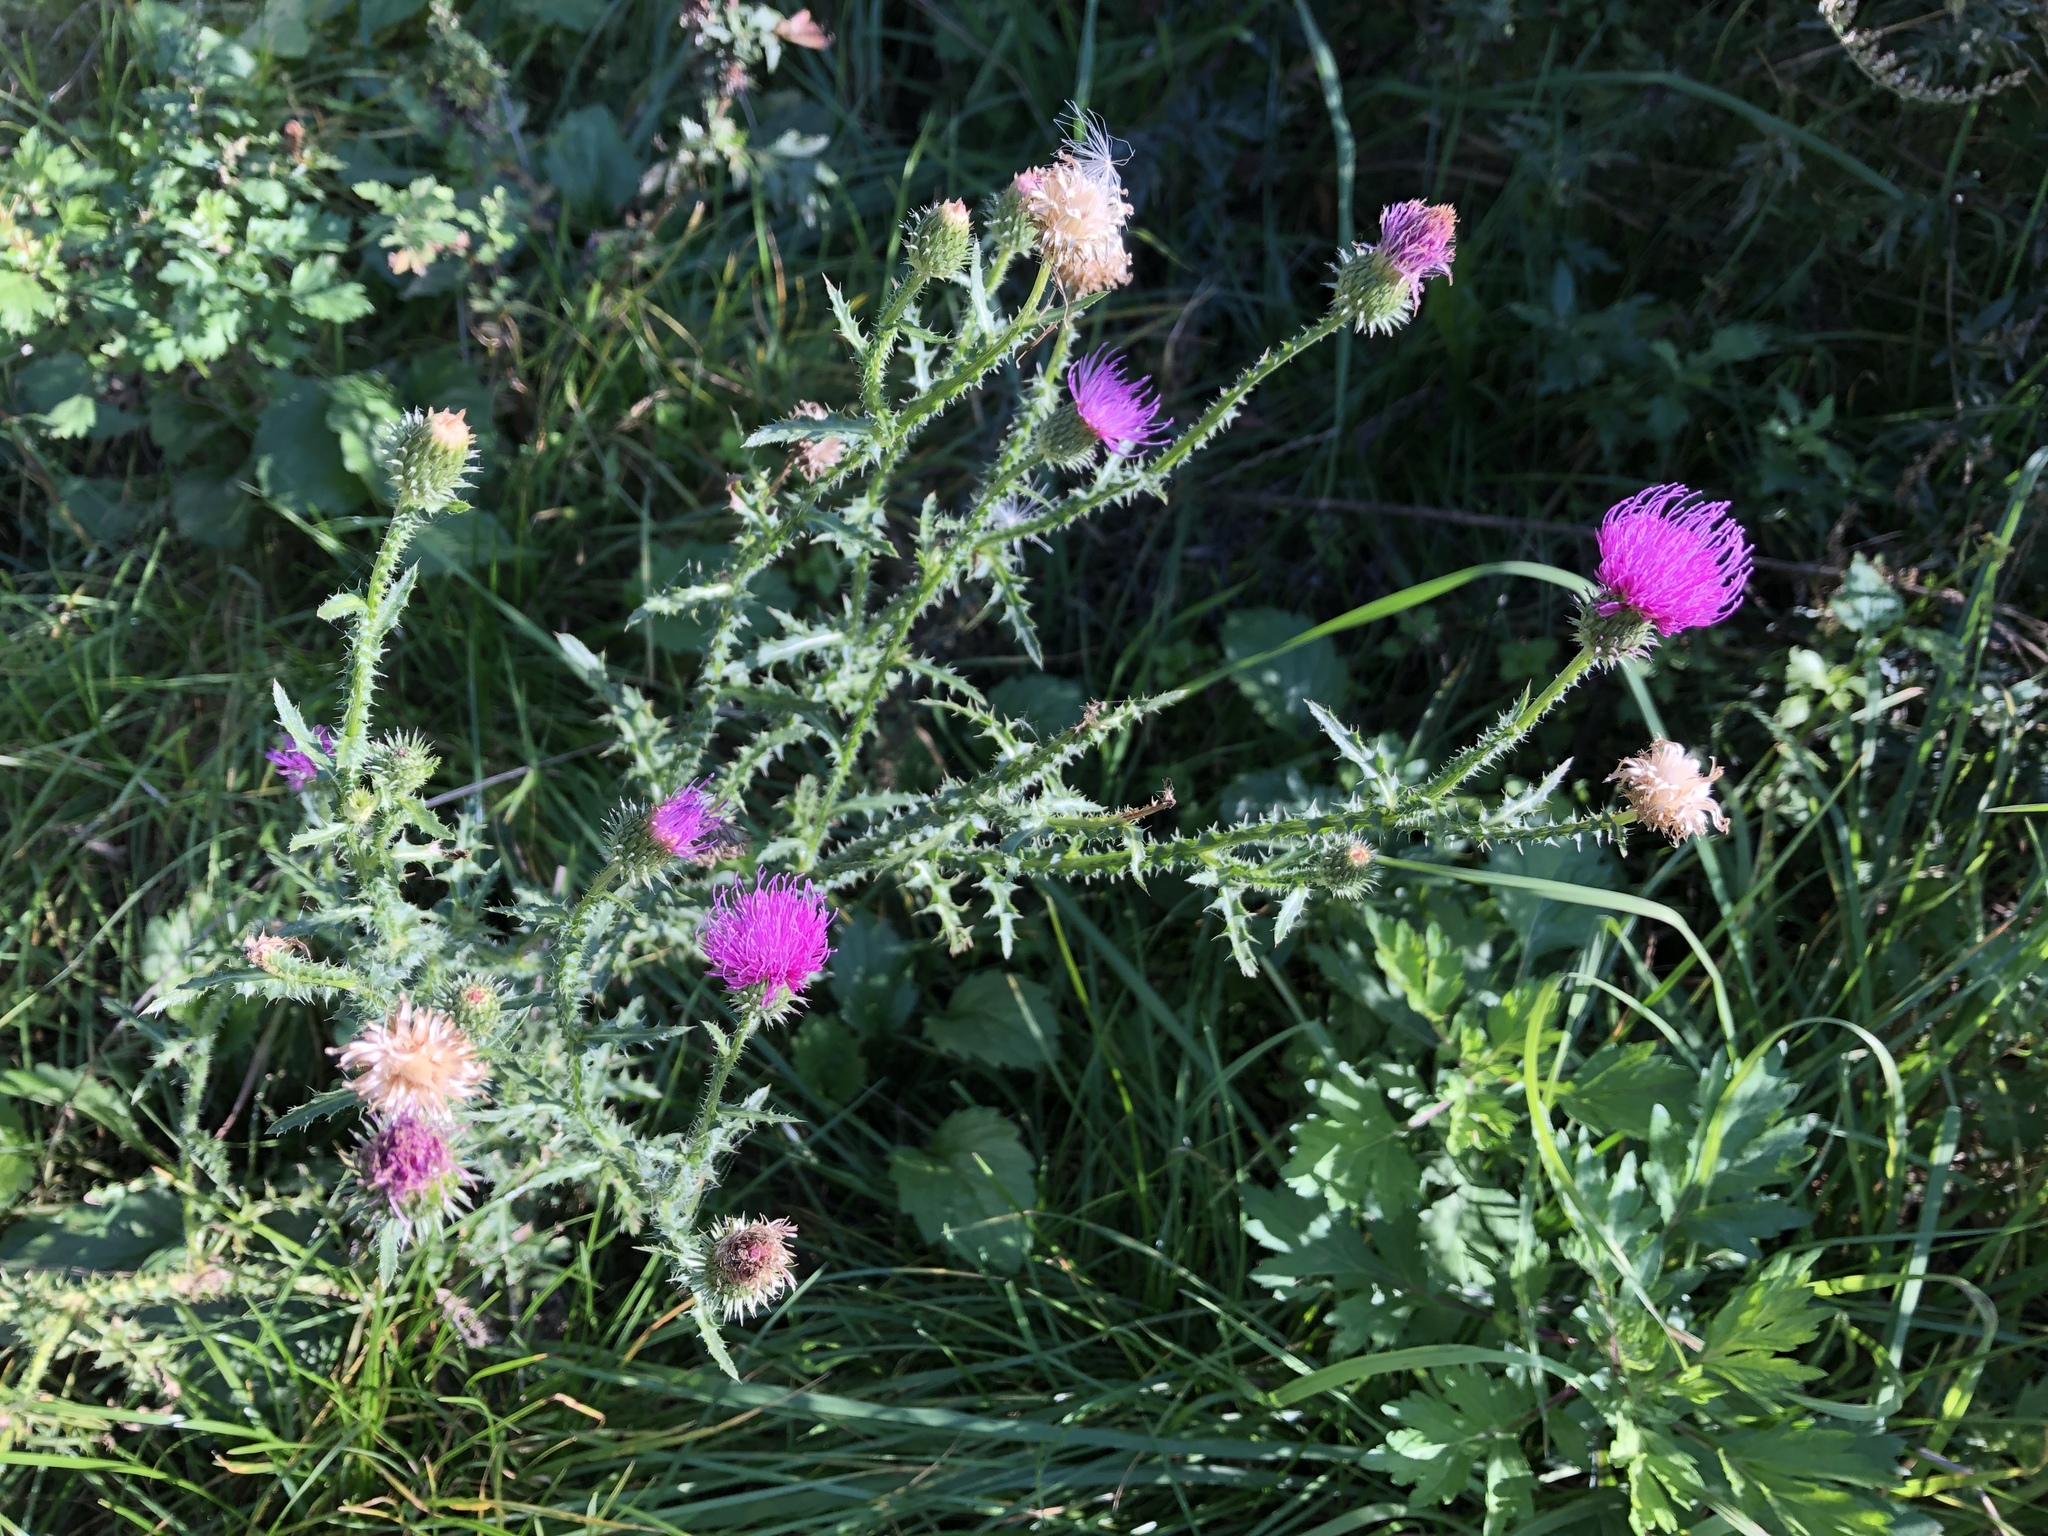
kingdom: Plantae
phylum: Tracheophyta
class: Magnoliopsida
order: Asterales
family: Asteraceae
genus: Carduus
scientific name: Carduus acanthoides
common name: Plumeless thistle
